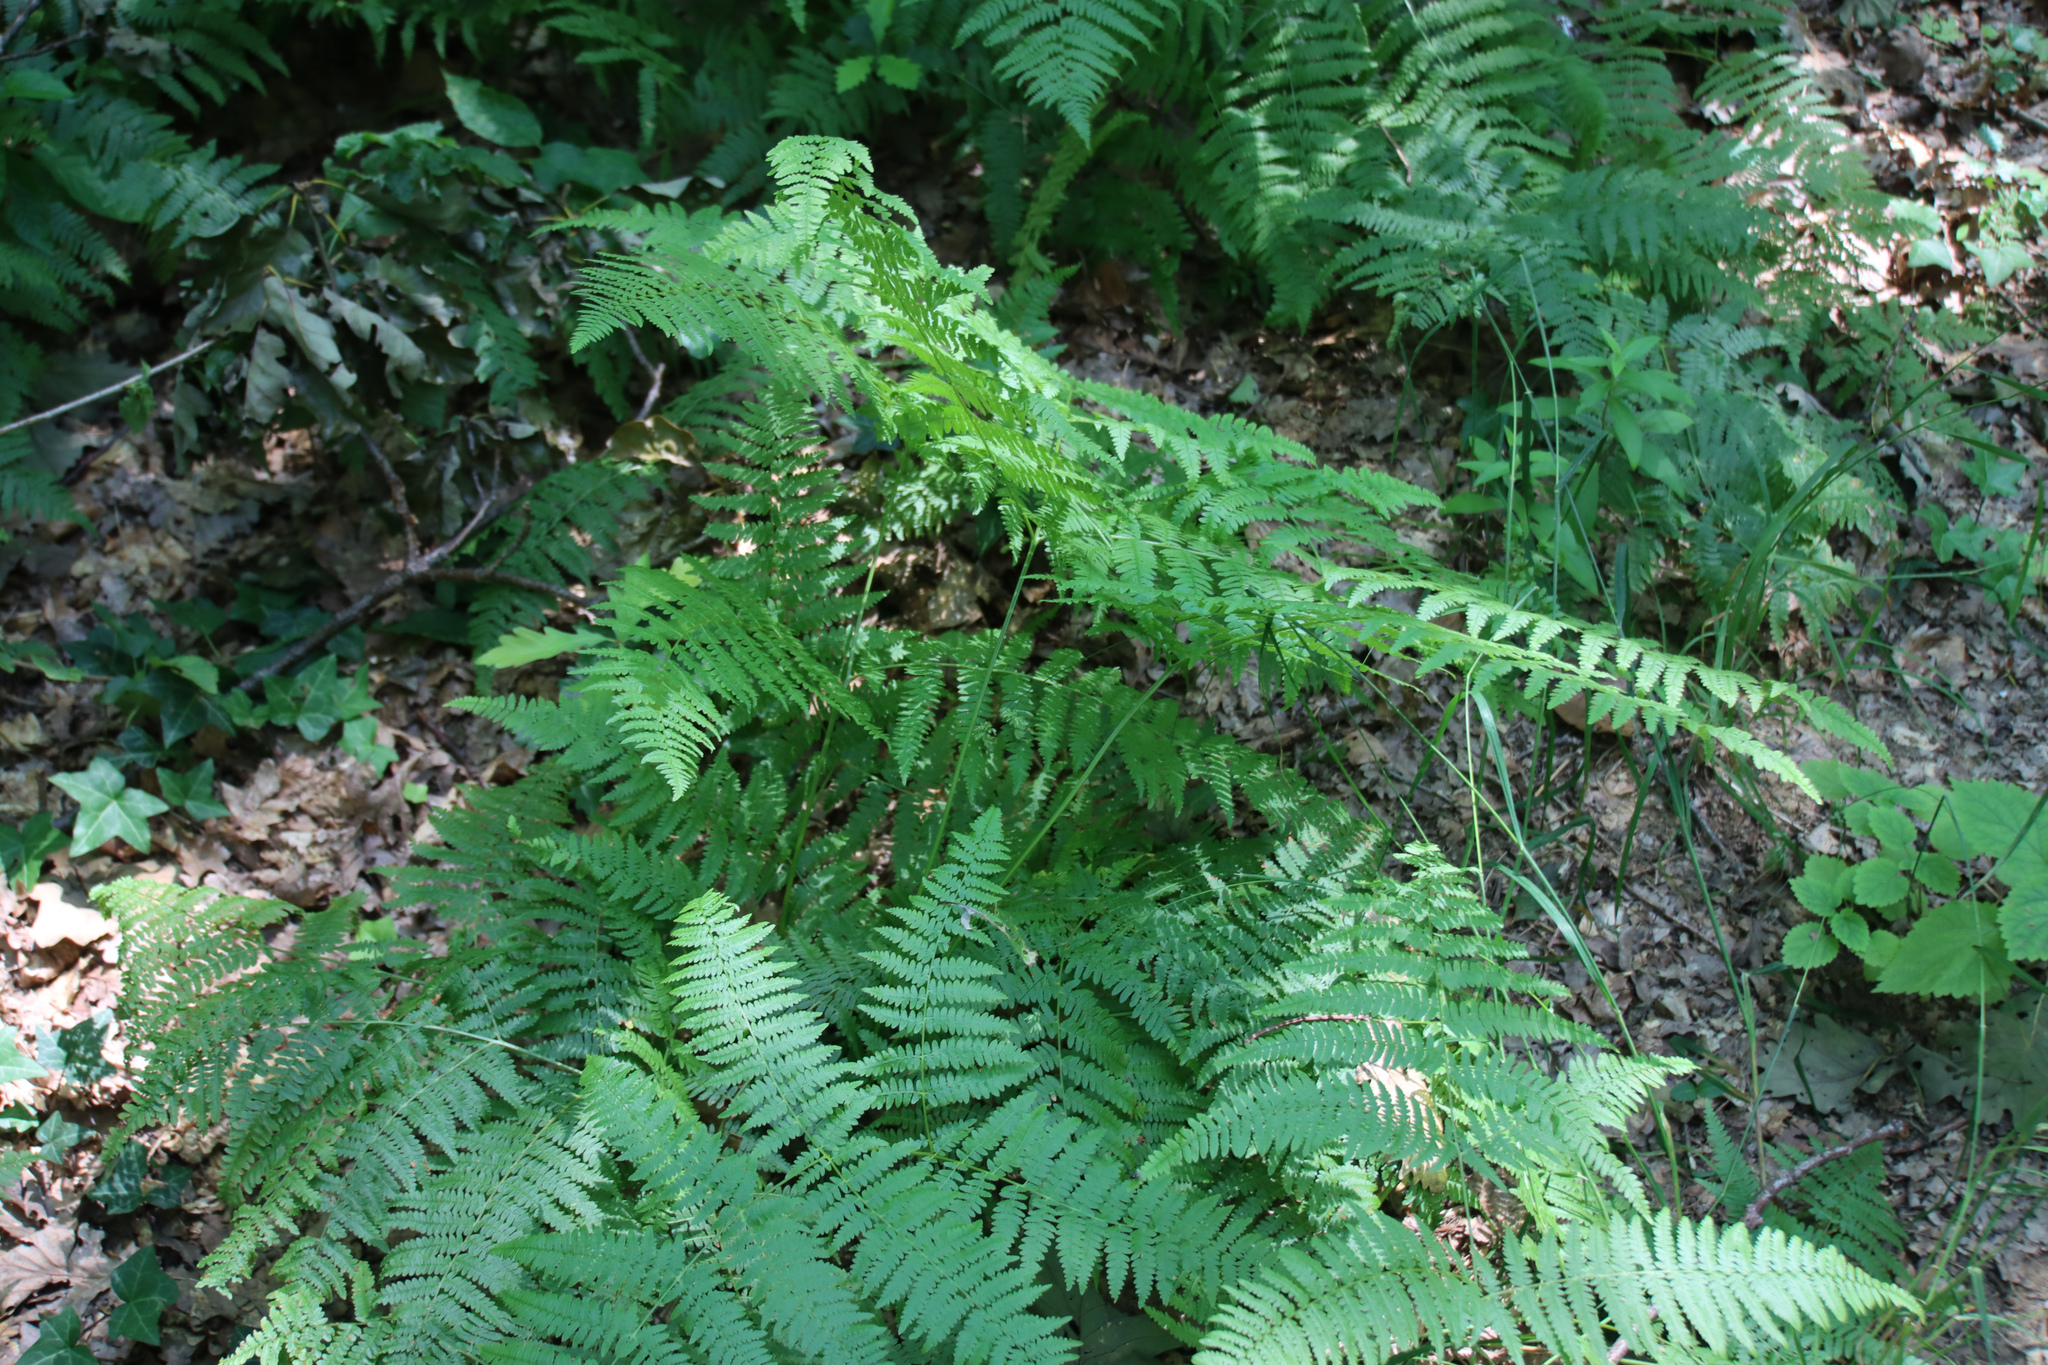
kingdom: Plantae
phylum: Tracheophyta
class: Polypodiopsida
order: Polypodiales
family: Dennstaedtiaceae
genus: Pteridium
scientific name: Pteridium aquilinum
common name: Bracken
